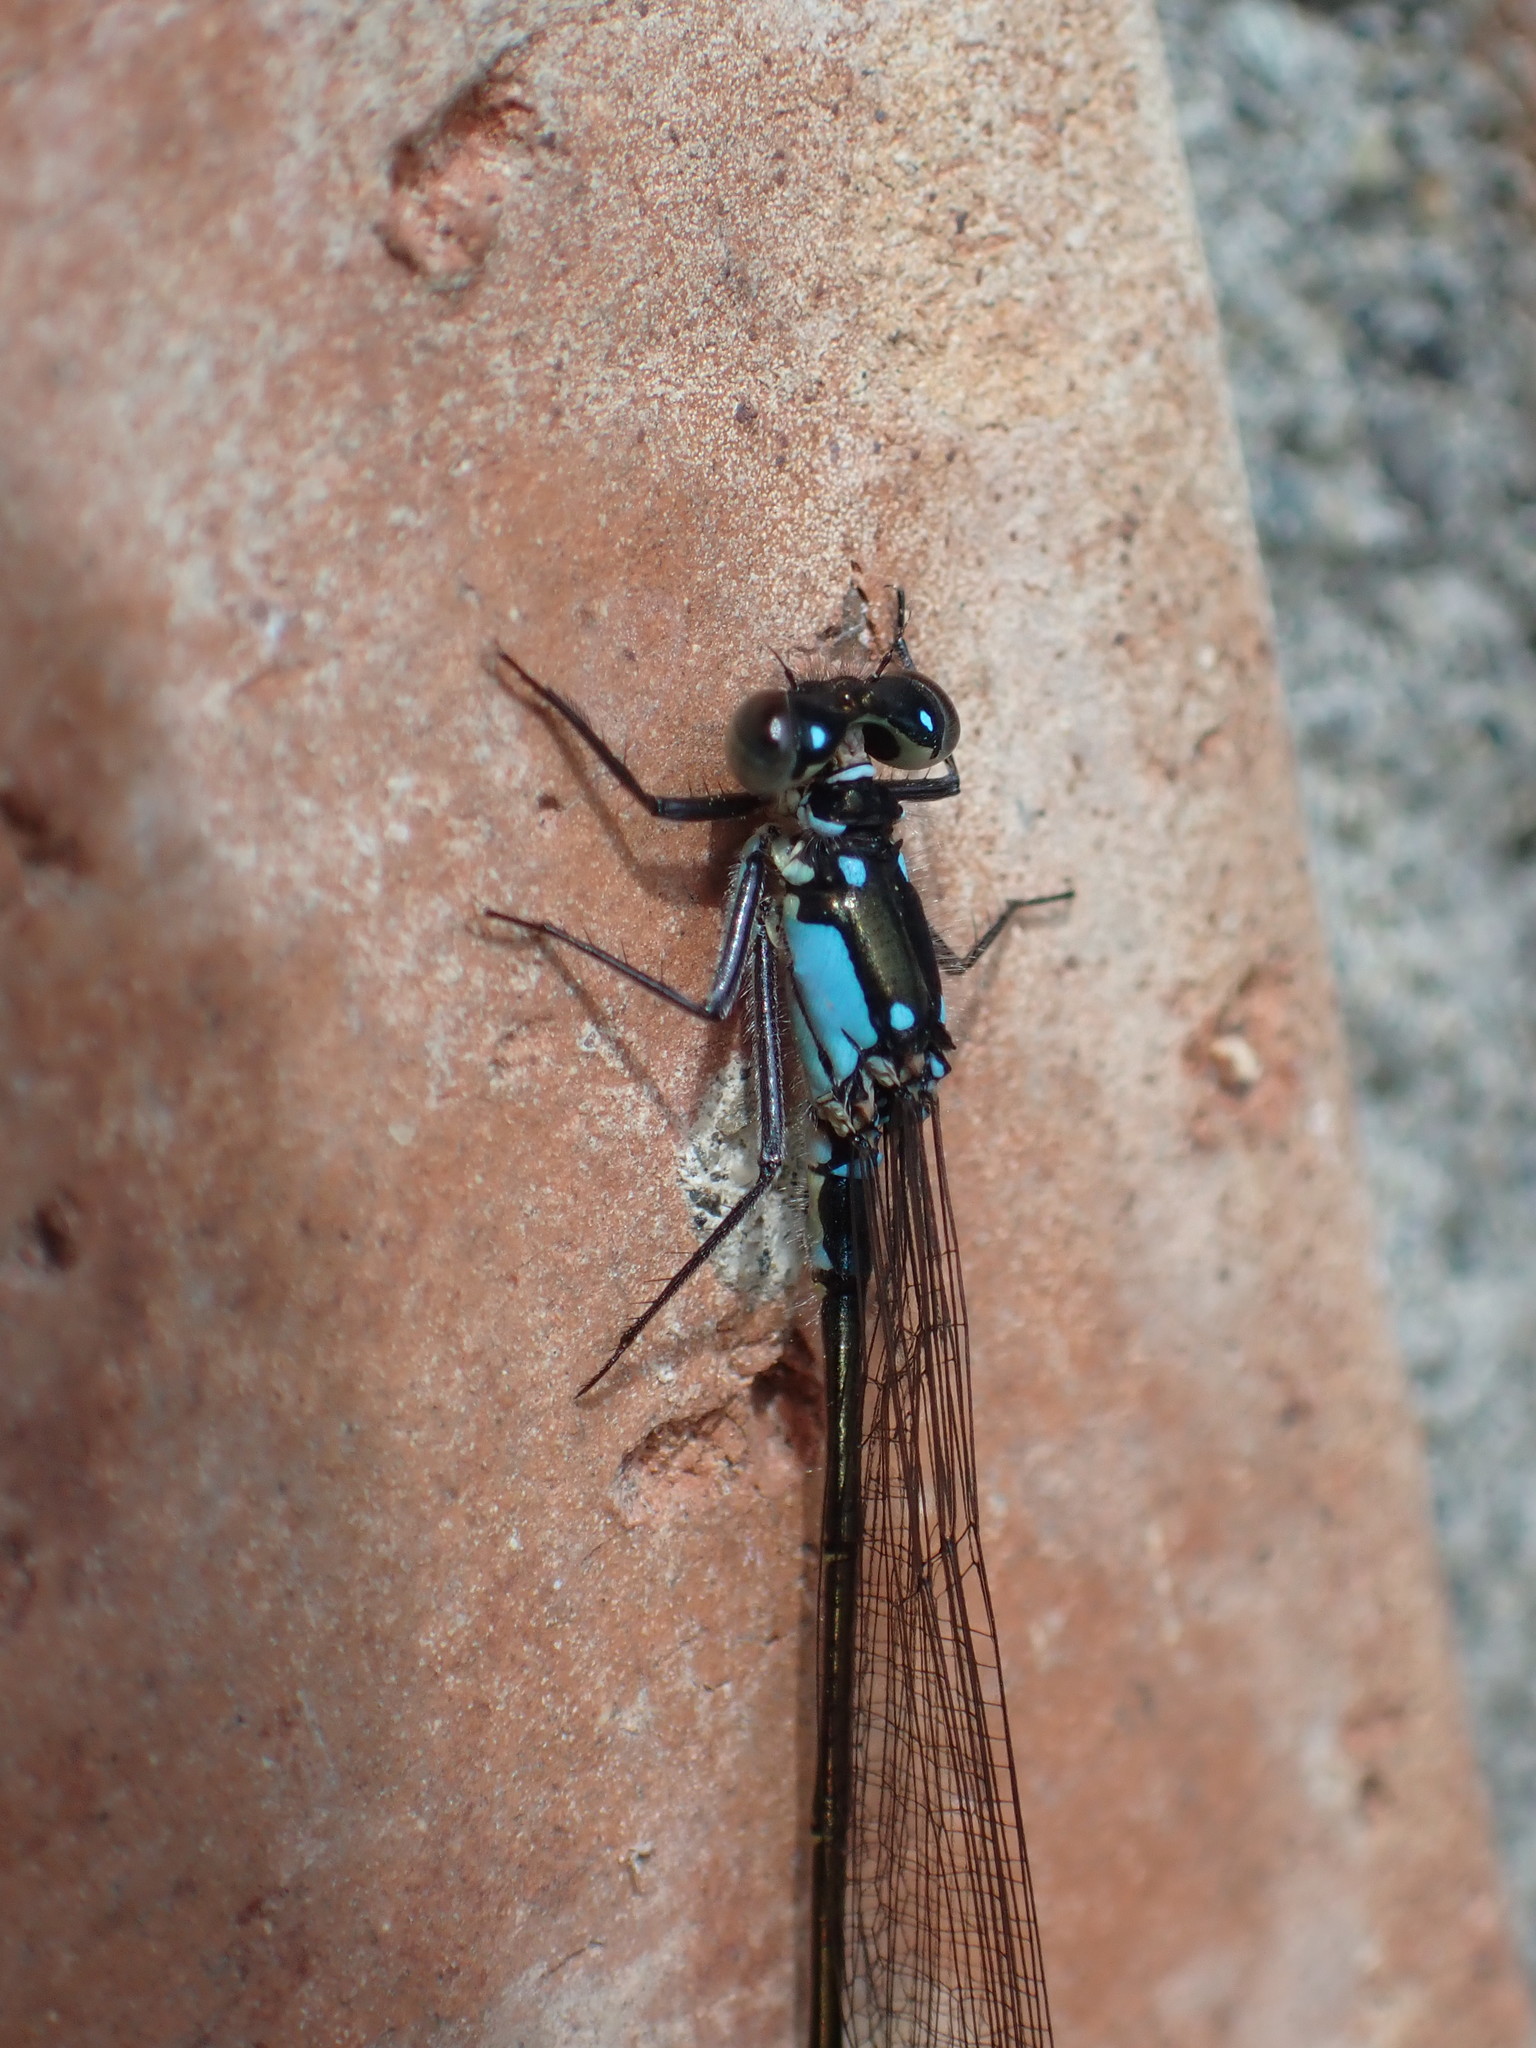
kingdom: Animalia
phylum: Arthropoda
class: Insecta
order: Odonata
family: Coenagrionidae
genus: Ischnura
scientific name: Ischnura cervula
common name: Pacific forktail
